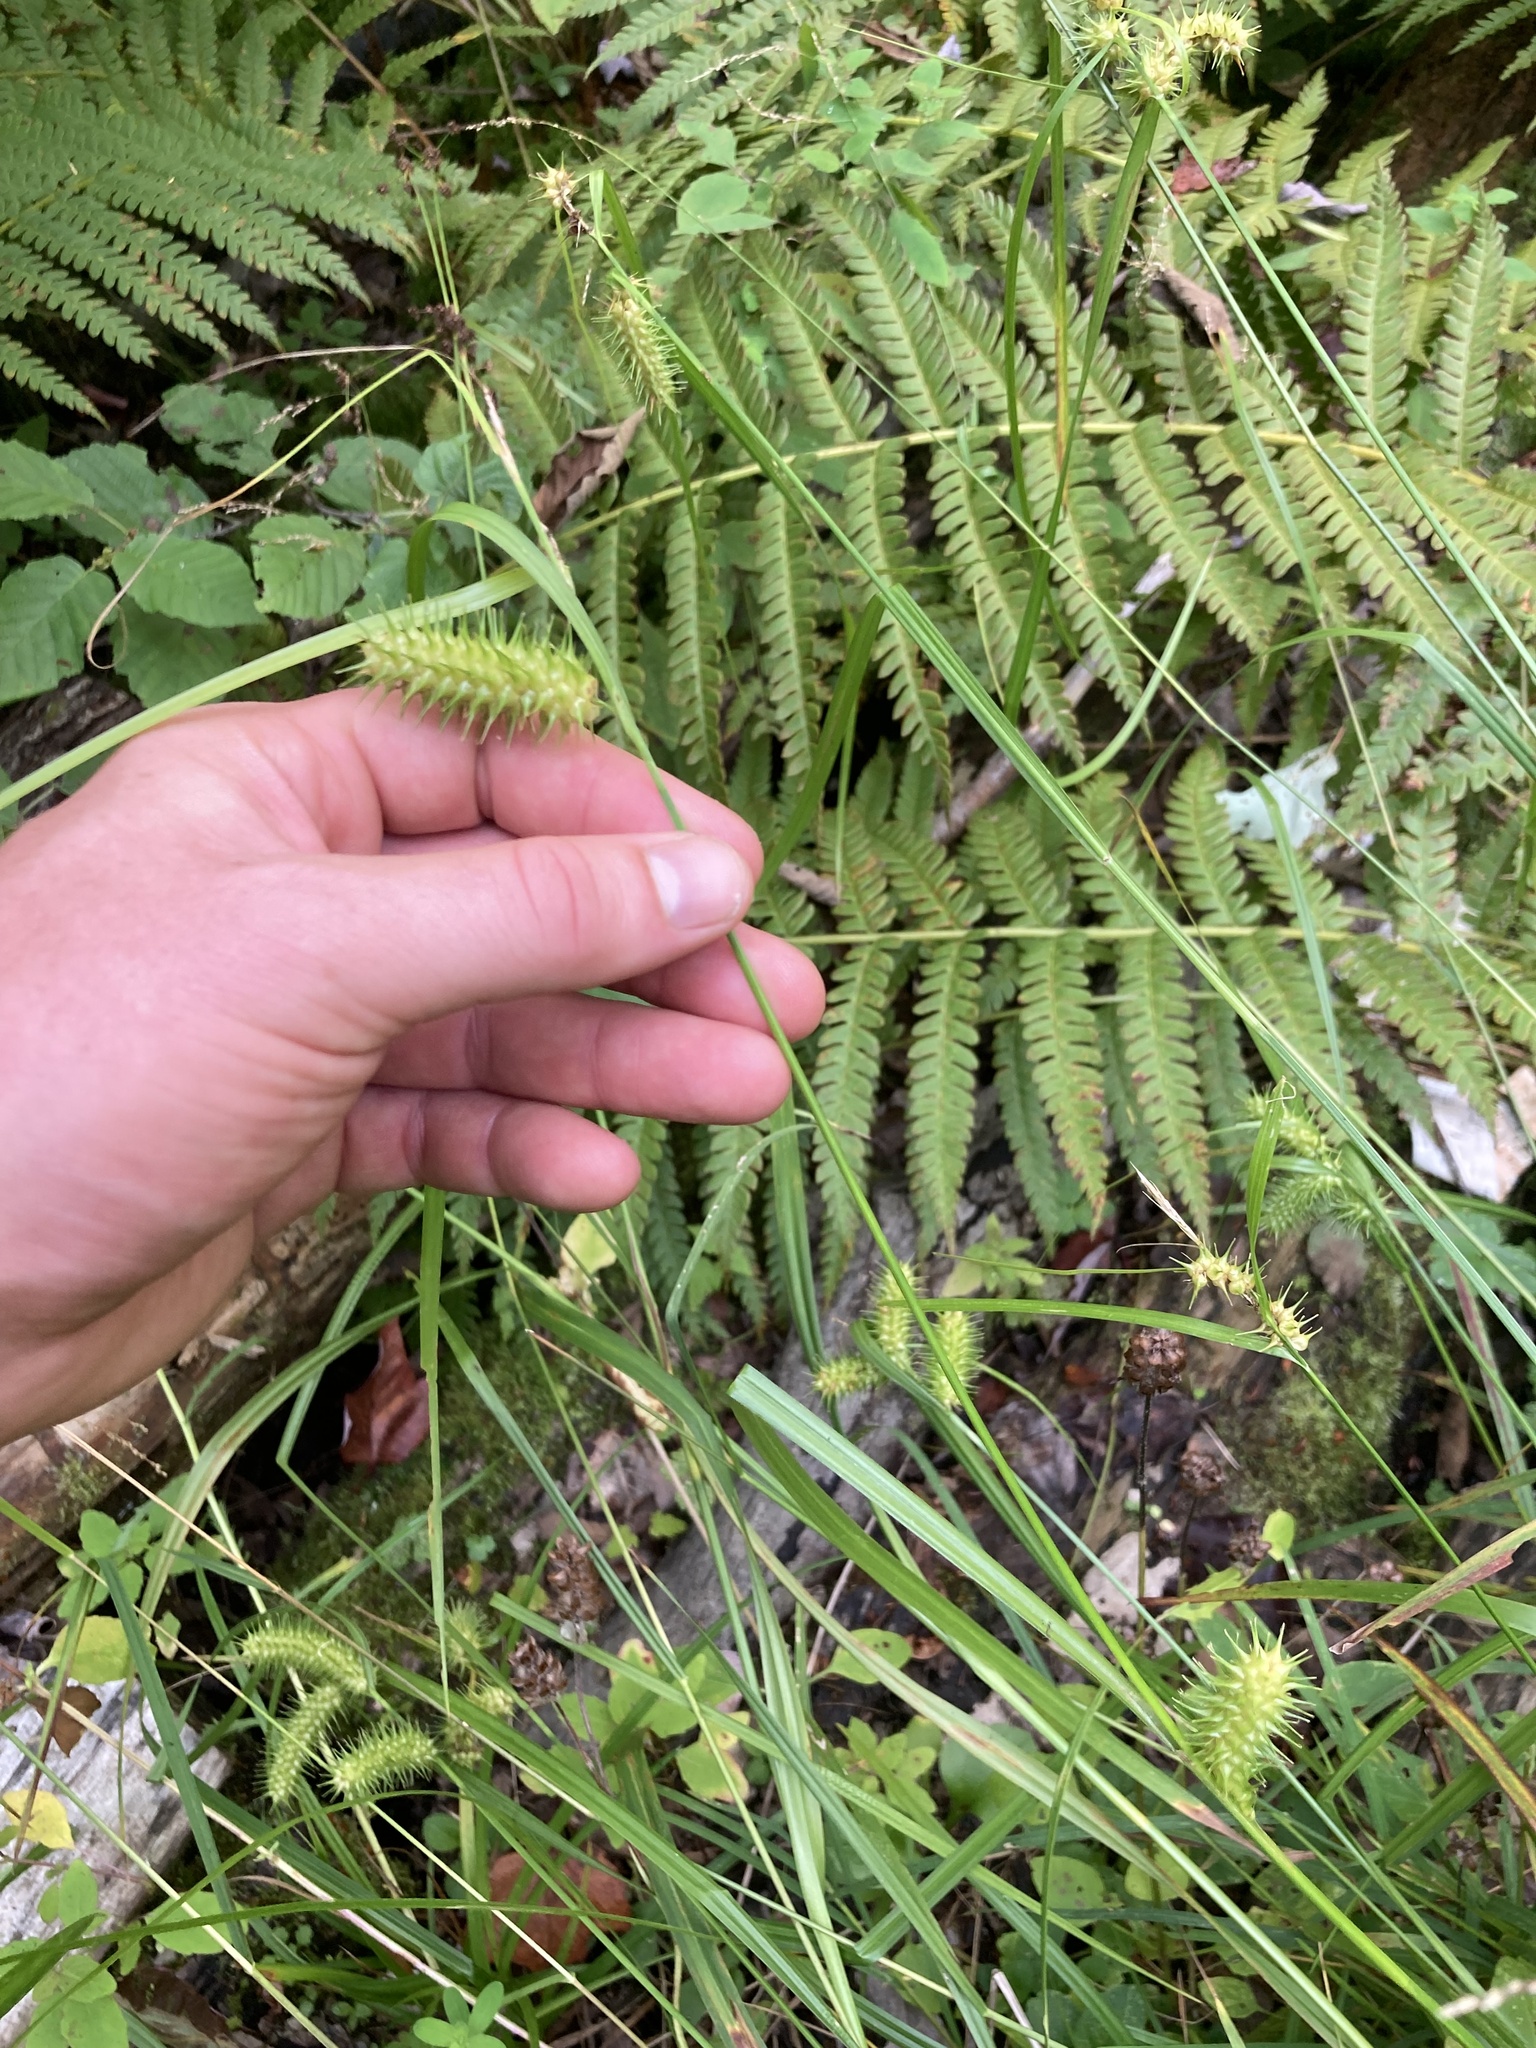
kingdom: Plantae
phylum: Tracheophyta
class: Liliopsida
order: Poales
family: Cyperaceae
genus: Carex
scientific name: Carex lurida
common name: Sallow sedge
